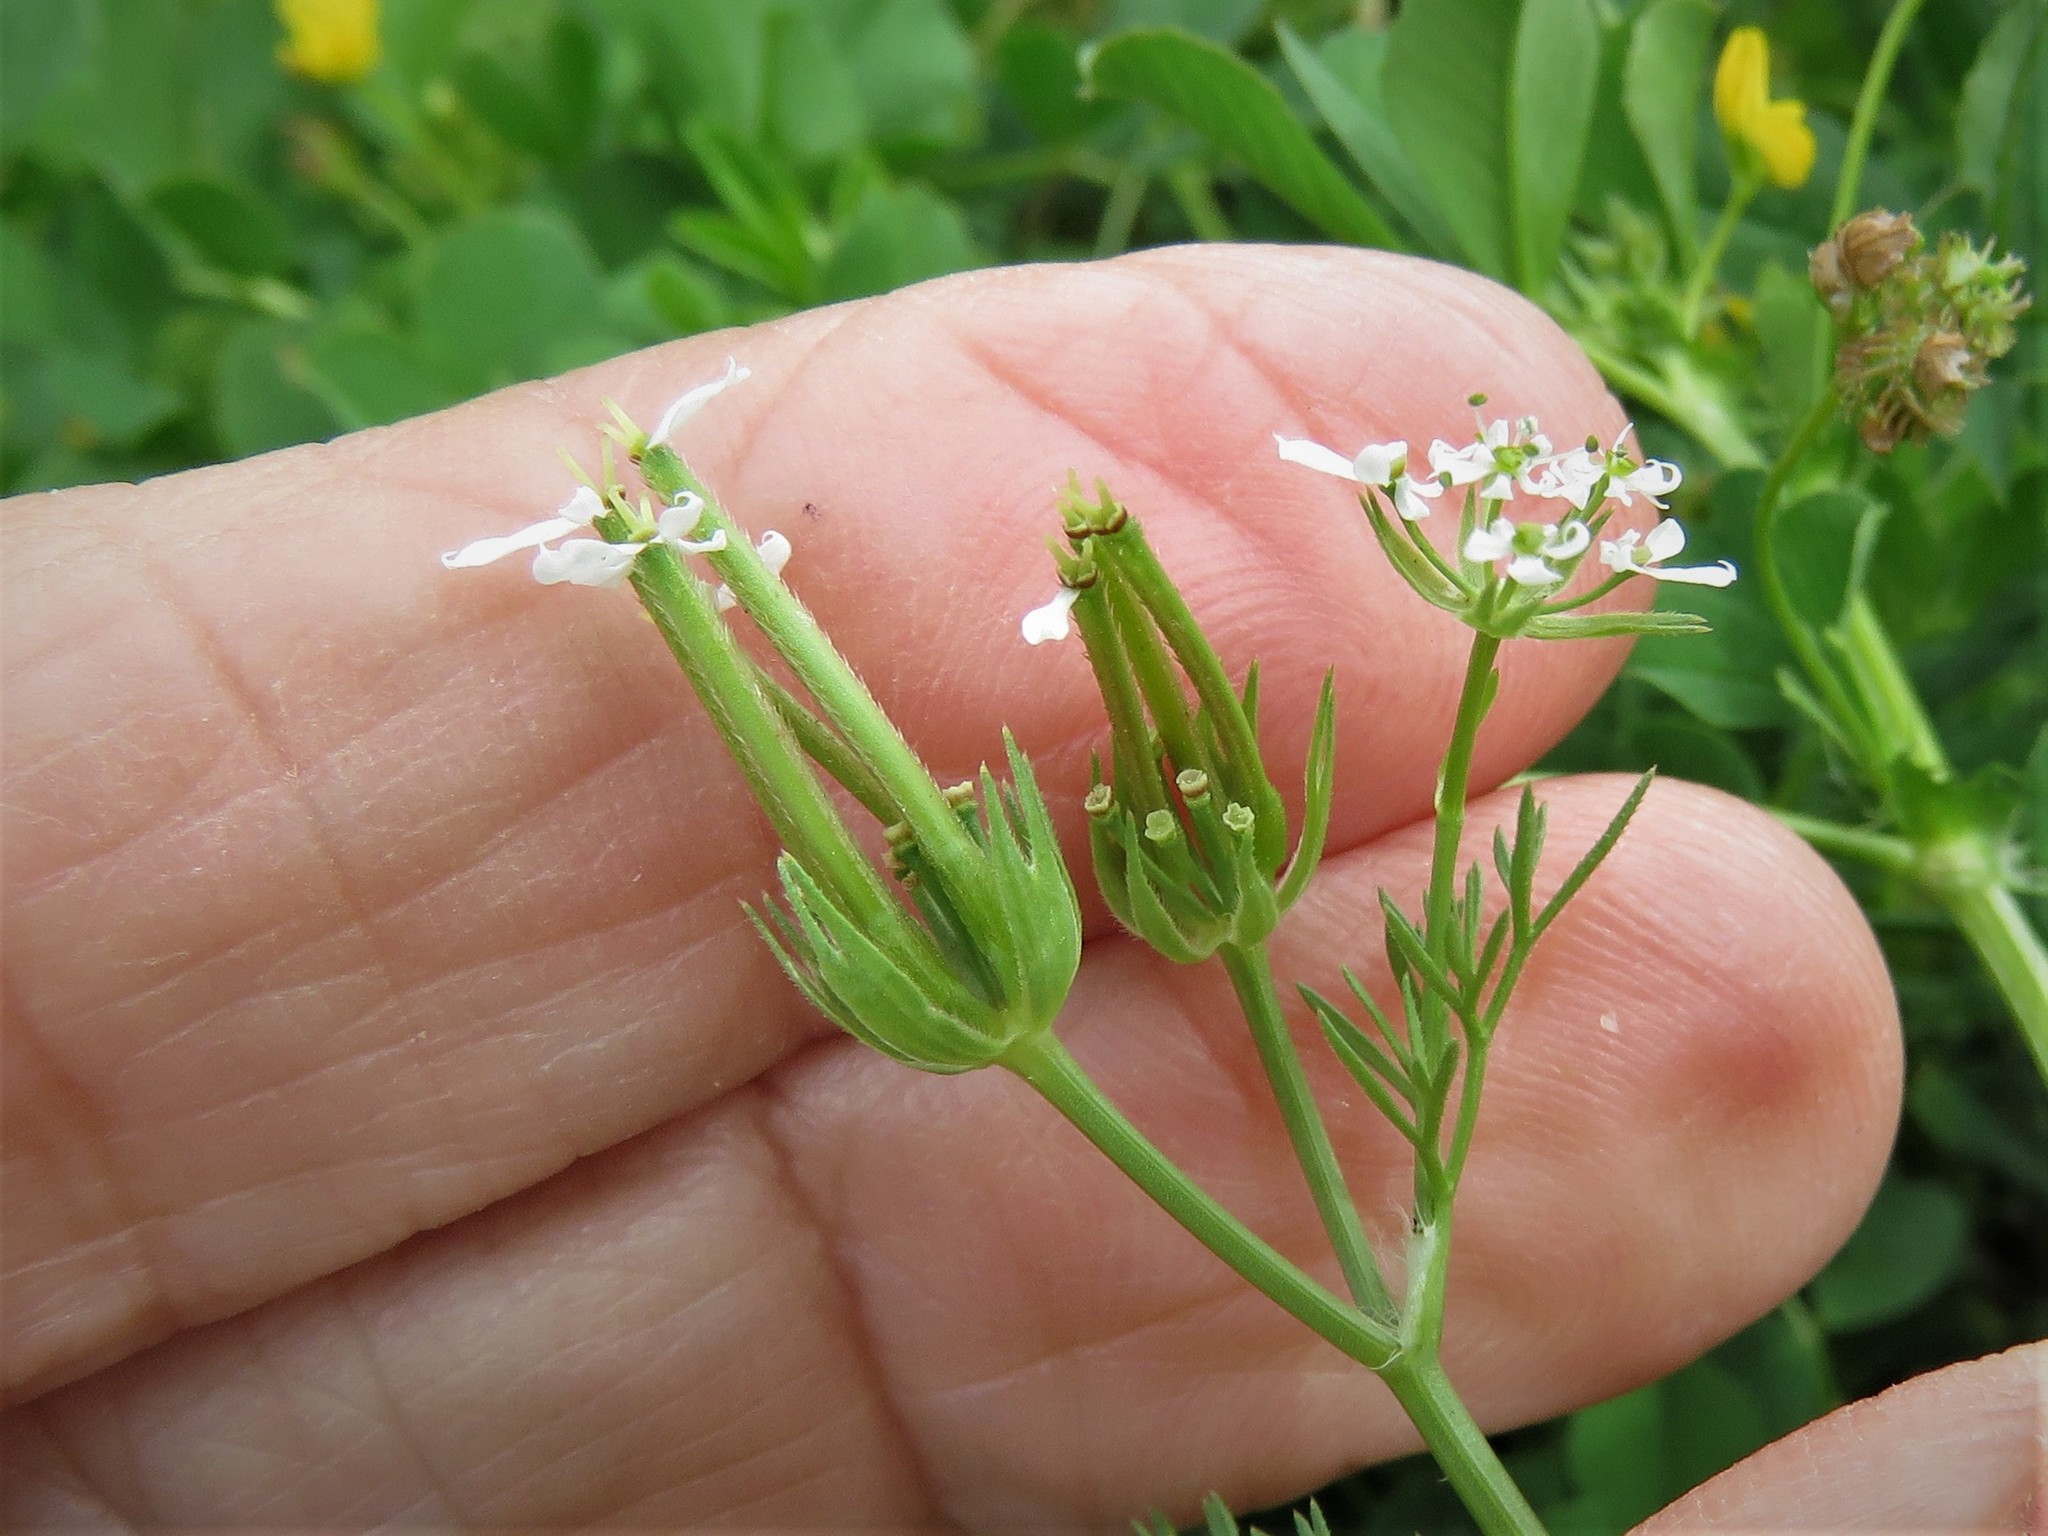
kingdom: Plantae
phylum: Tracheophyta
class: Magnoliopsida
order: Apiales
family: Apiaceae
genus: Scandix
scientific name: Scandix pecten-veneris
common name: Shepherd's-needle
